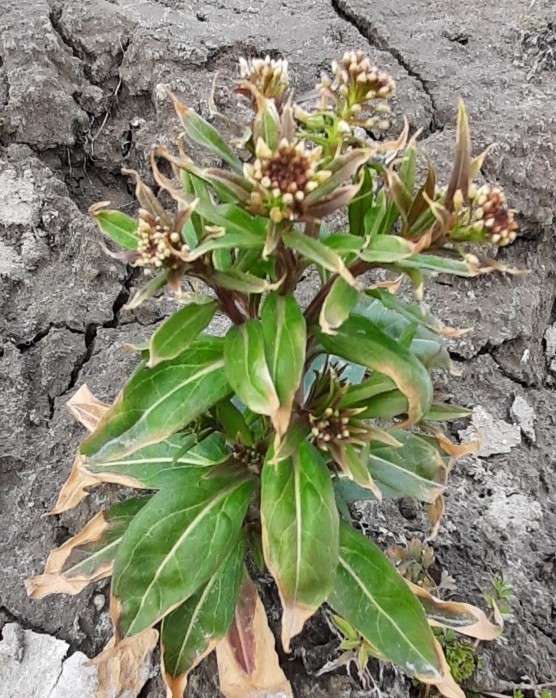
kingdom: Plantae
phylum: Tracheophyta
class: Magnoliopsida
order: Brassicales
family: Brassicaceae
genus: Erysimum
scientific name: Erysimum cheiranthoides
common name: Treacle mustard
